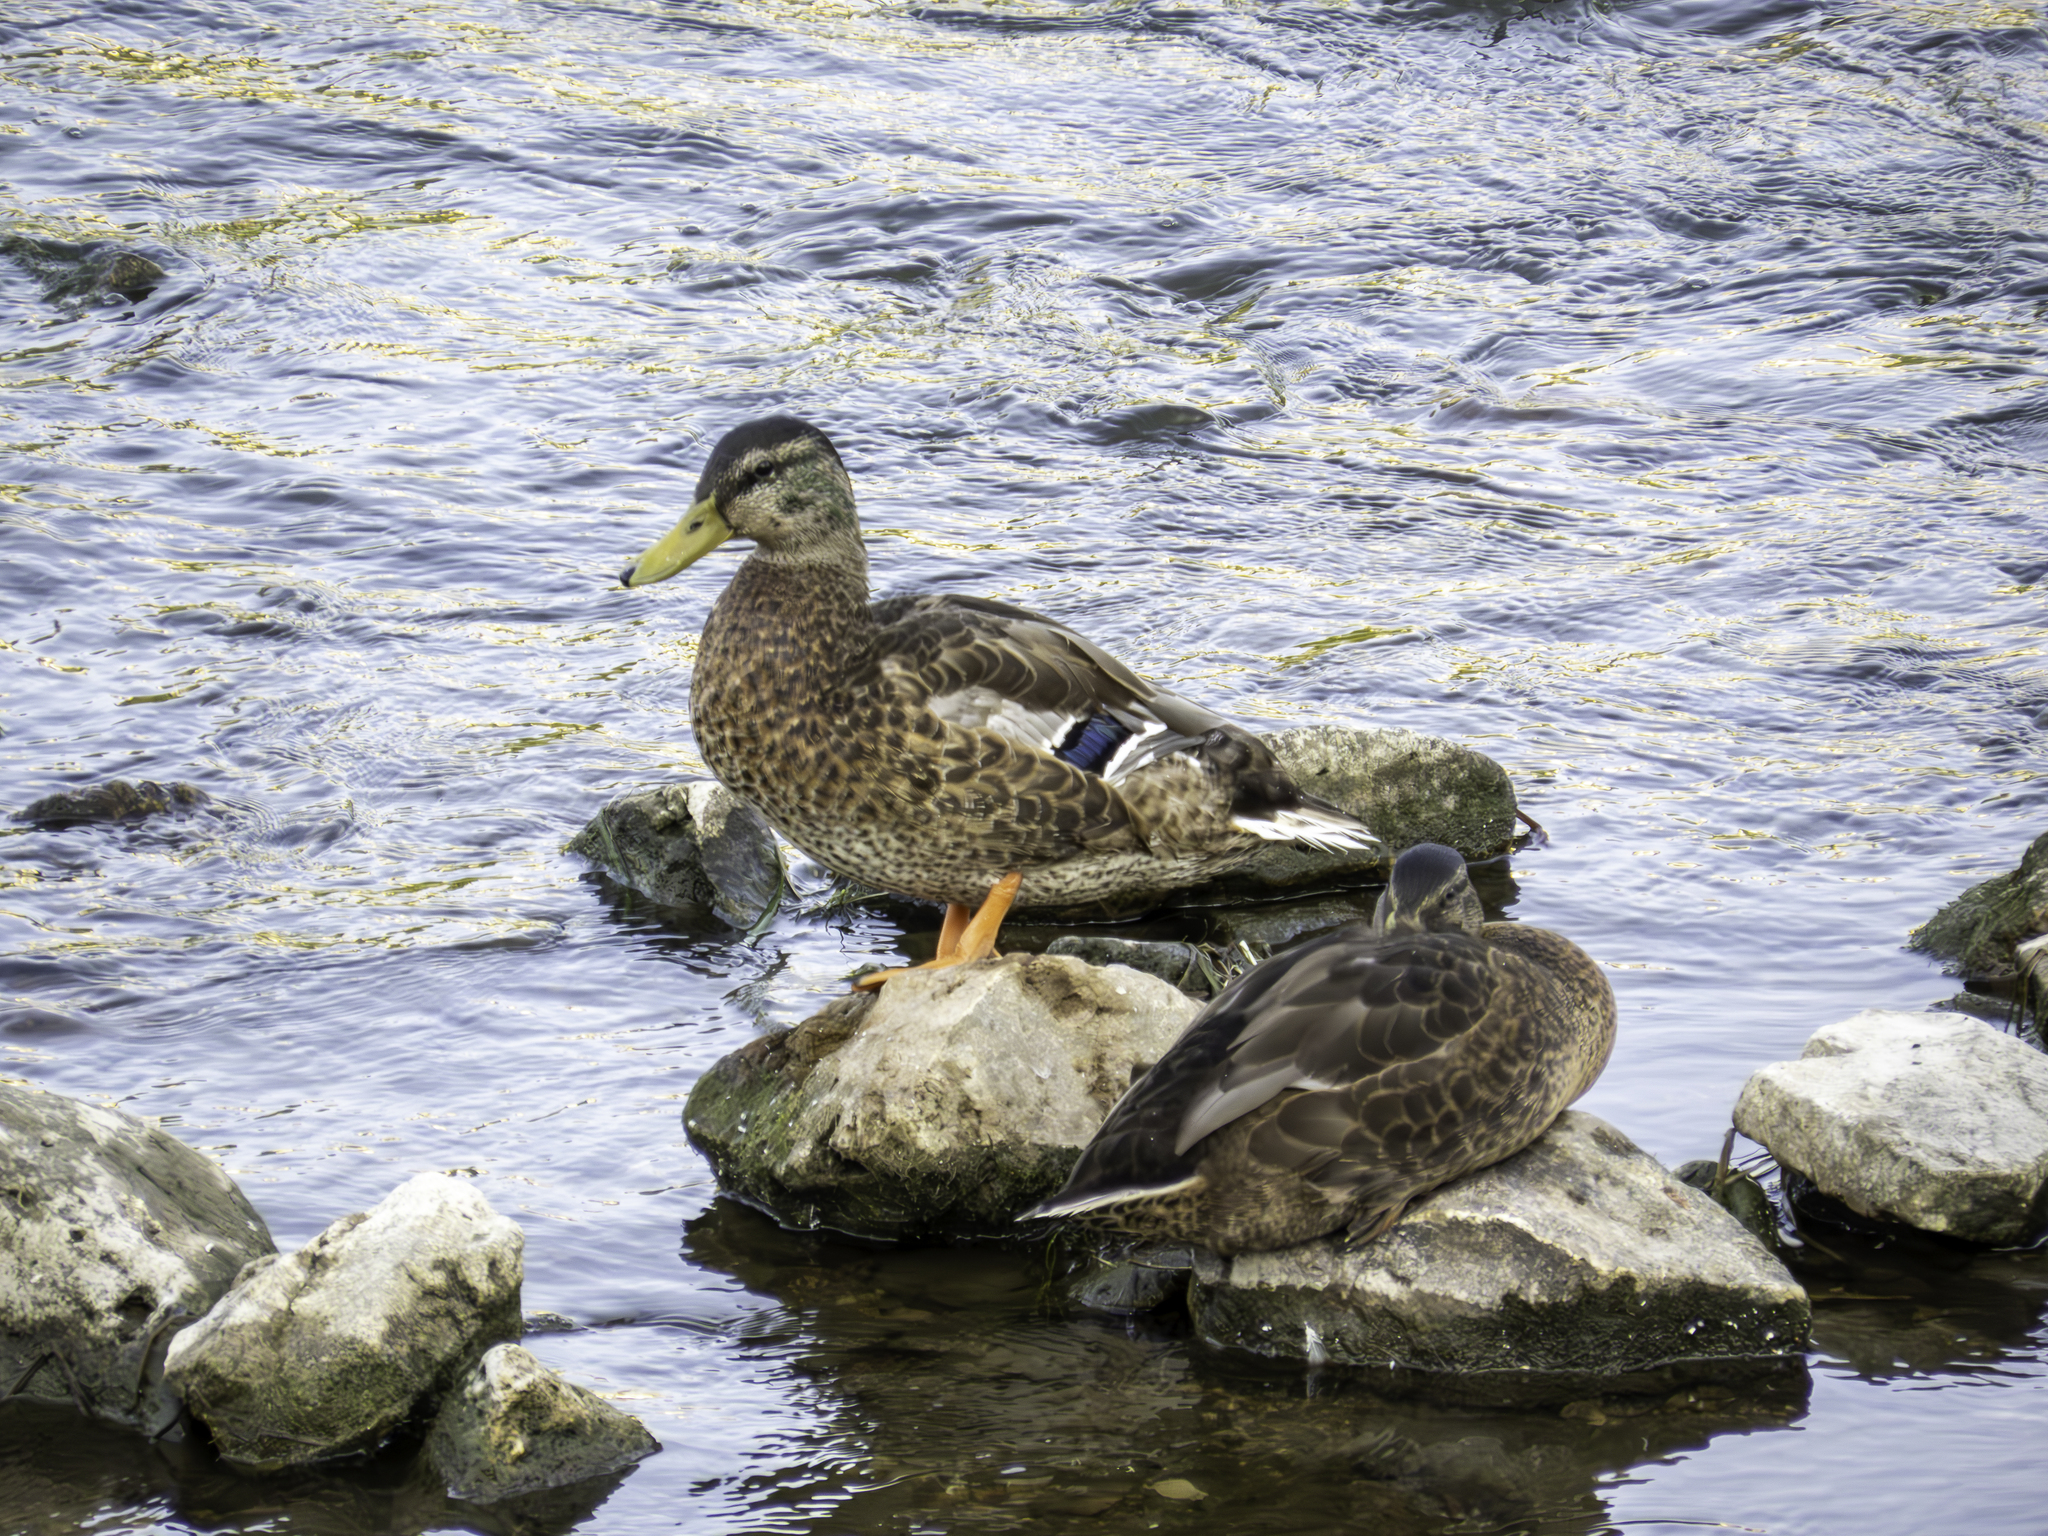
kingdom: Animalia
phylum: Chordata
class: Aves
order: Anseriformes
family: Anatidae
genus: Anas
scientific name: Anas platyrhynchos
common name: Mallard
